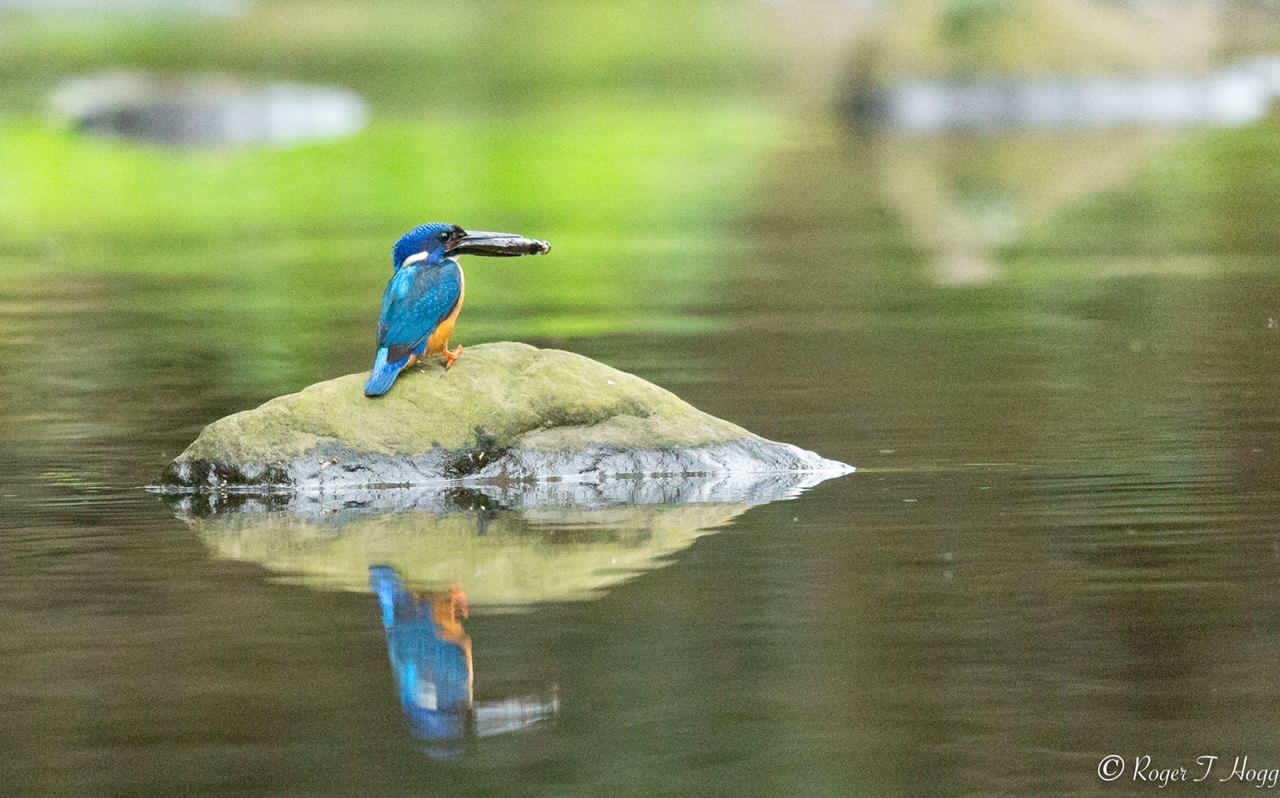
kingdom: Animalia
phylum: Chordata
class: Aves
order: Coraciiformes
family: Alcedinidae
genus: Alcedo
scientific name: Alcedo semitorquata
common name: Half-collared kingfisher
